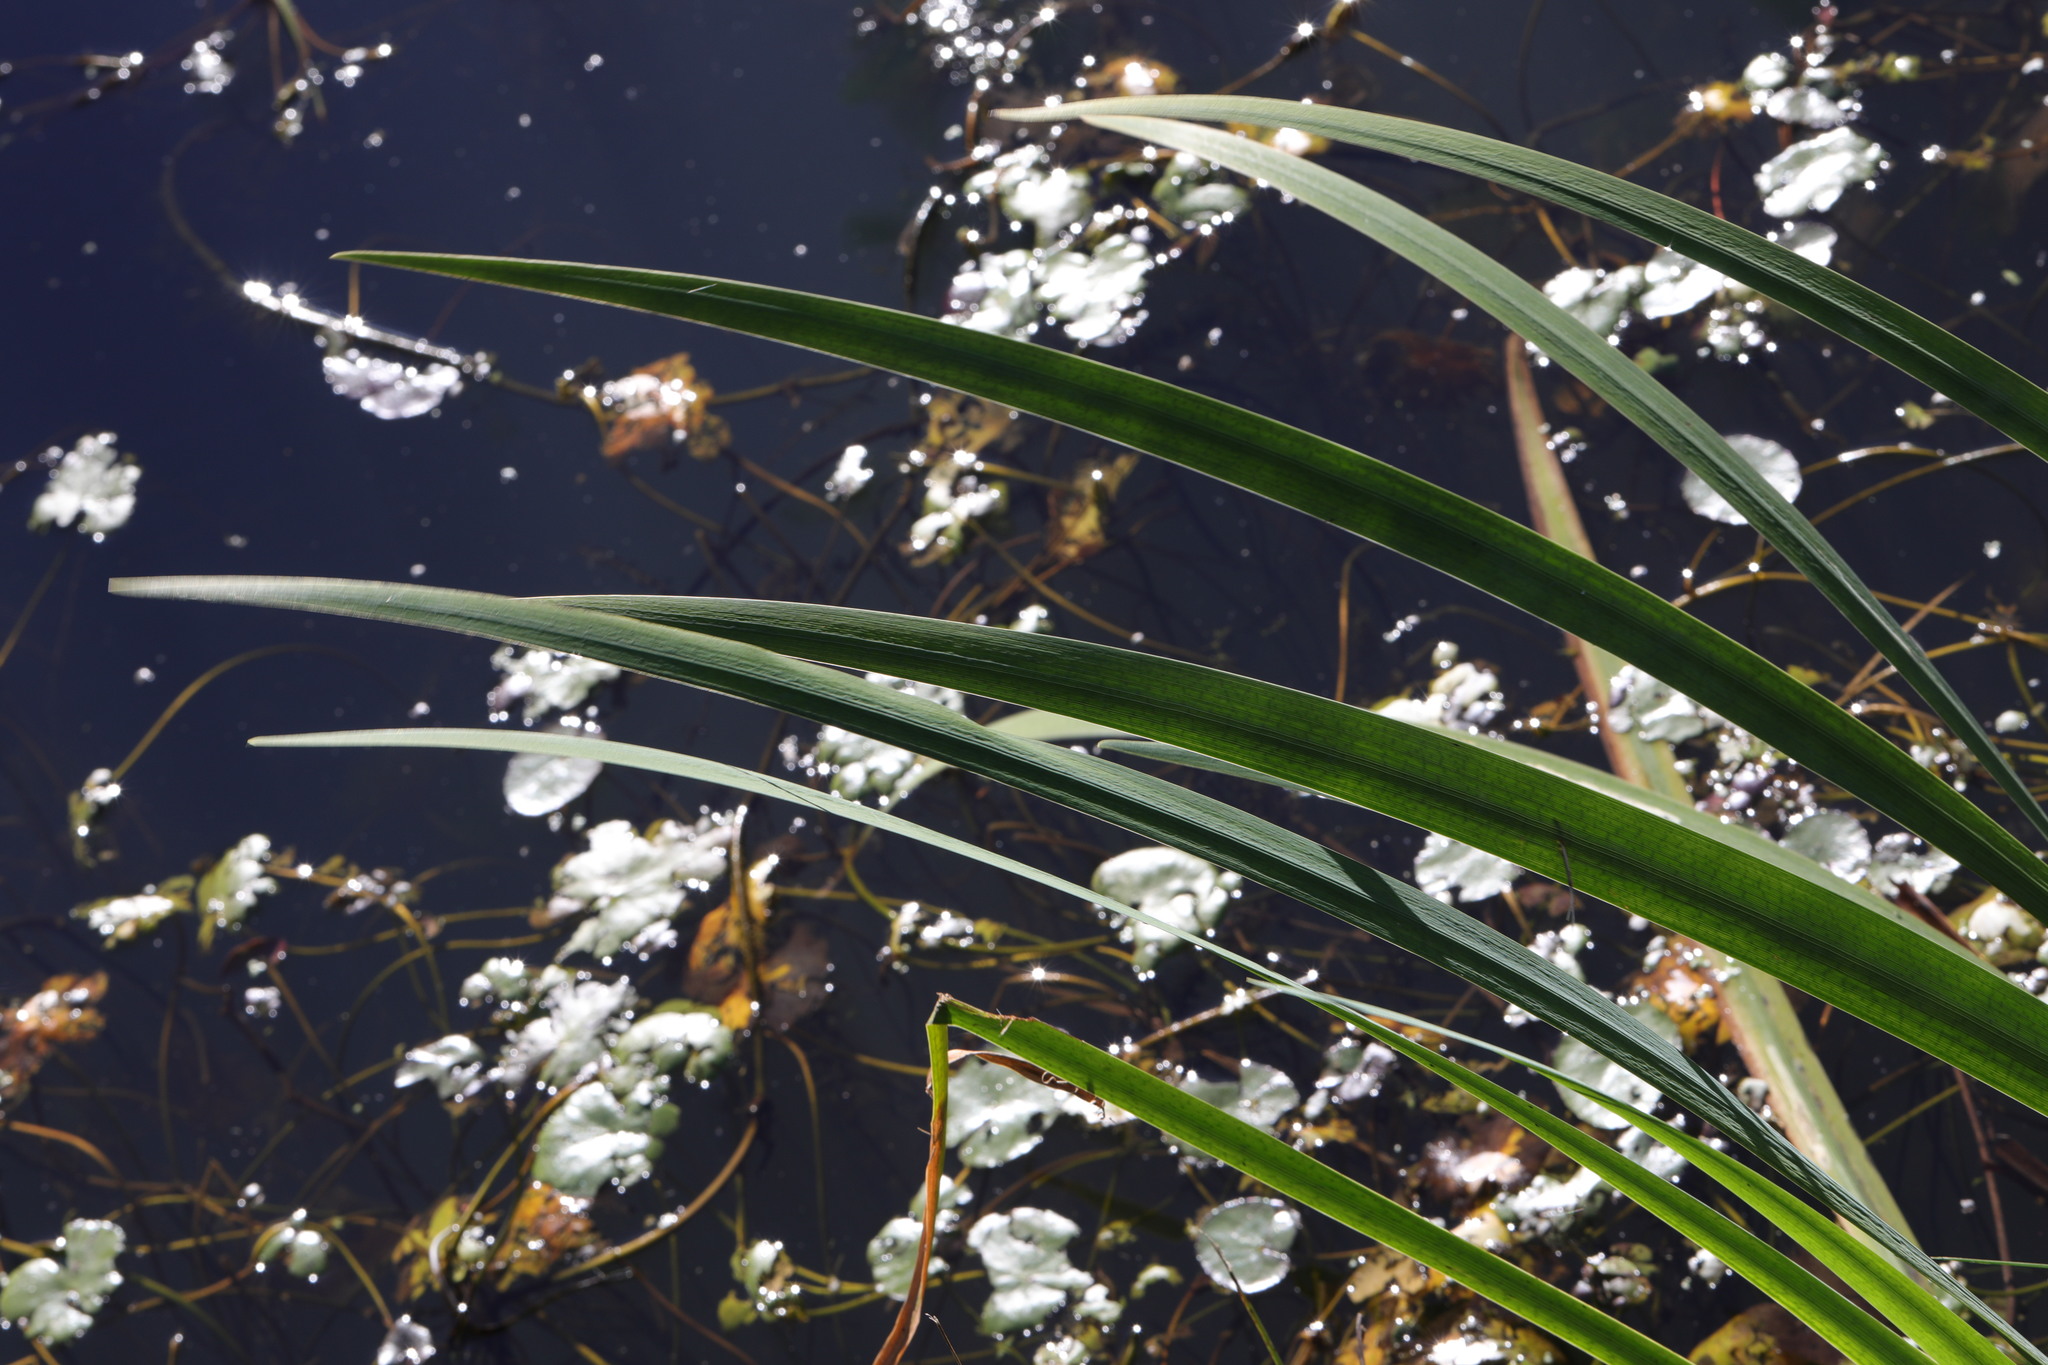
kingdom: Plantae
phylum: Tracheophyta
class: Liliopsida
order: Asparagales
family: Iridaceae
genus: Iris
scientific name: Iris pseudacorus
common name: Yellow flag
